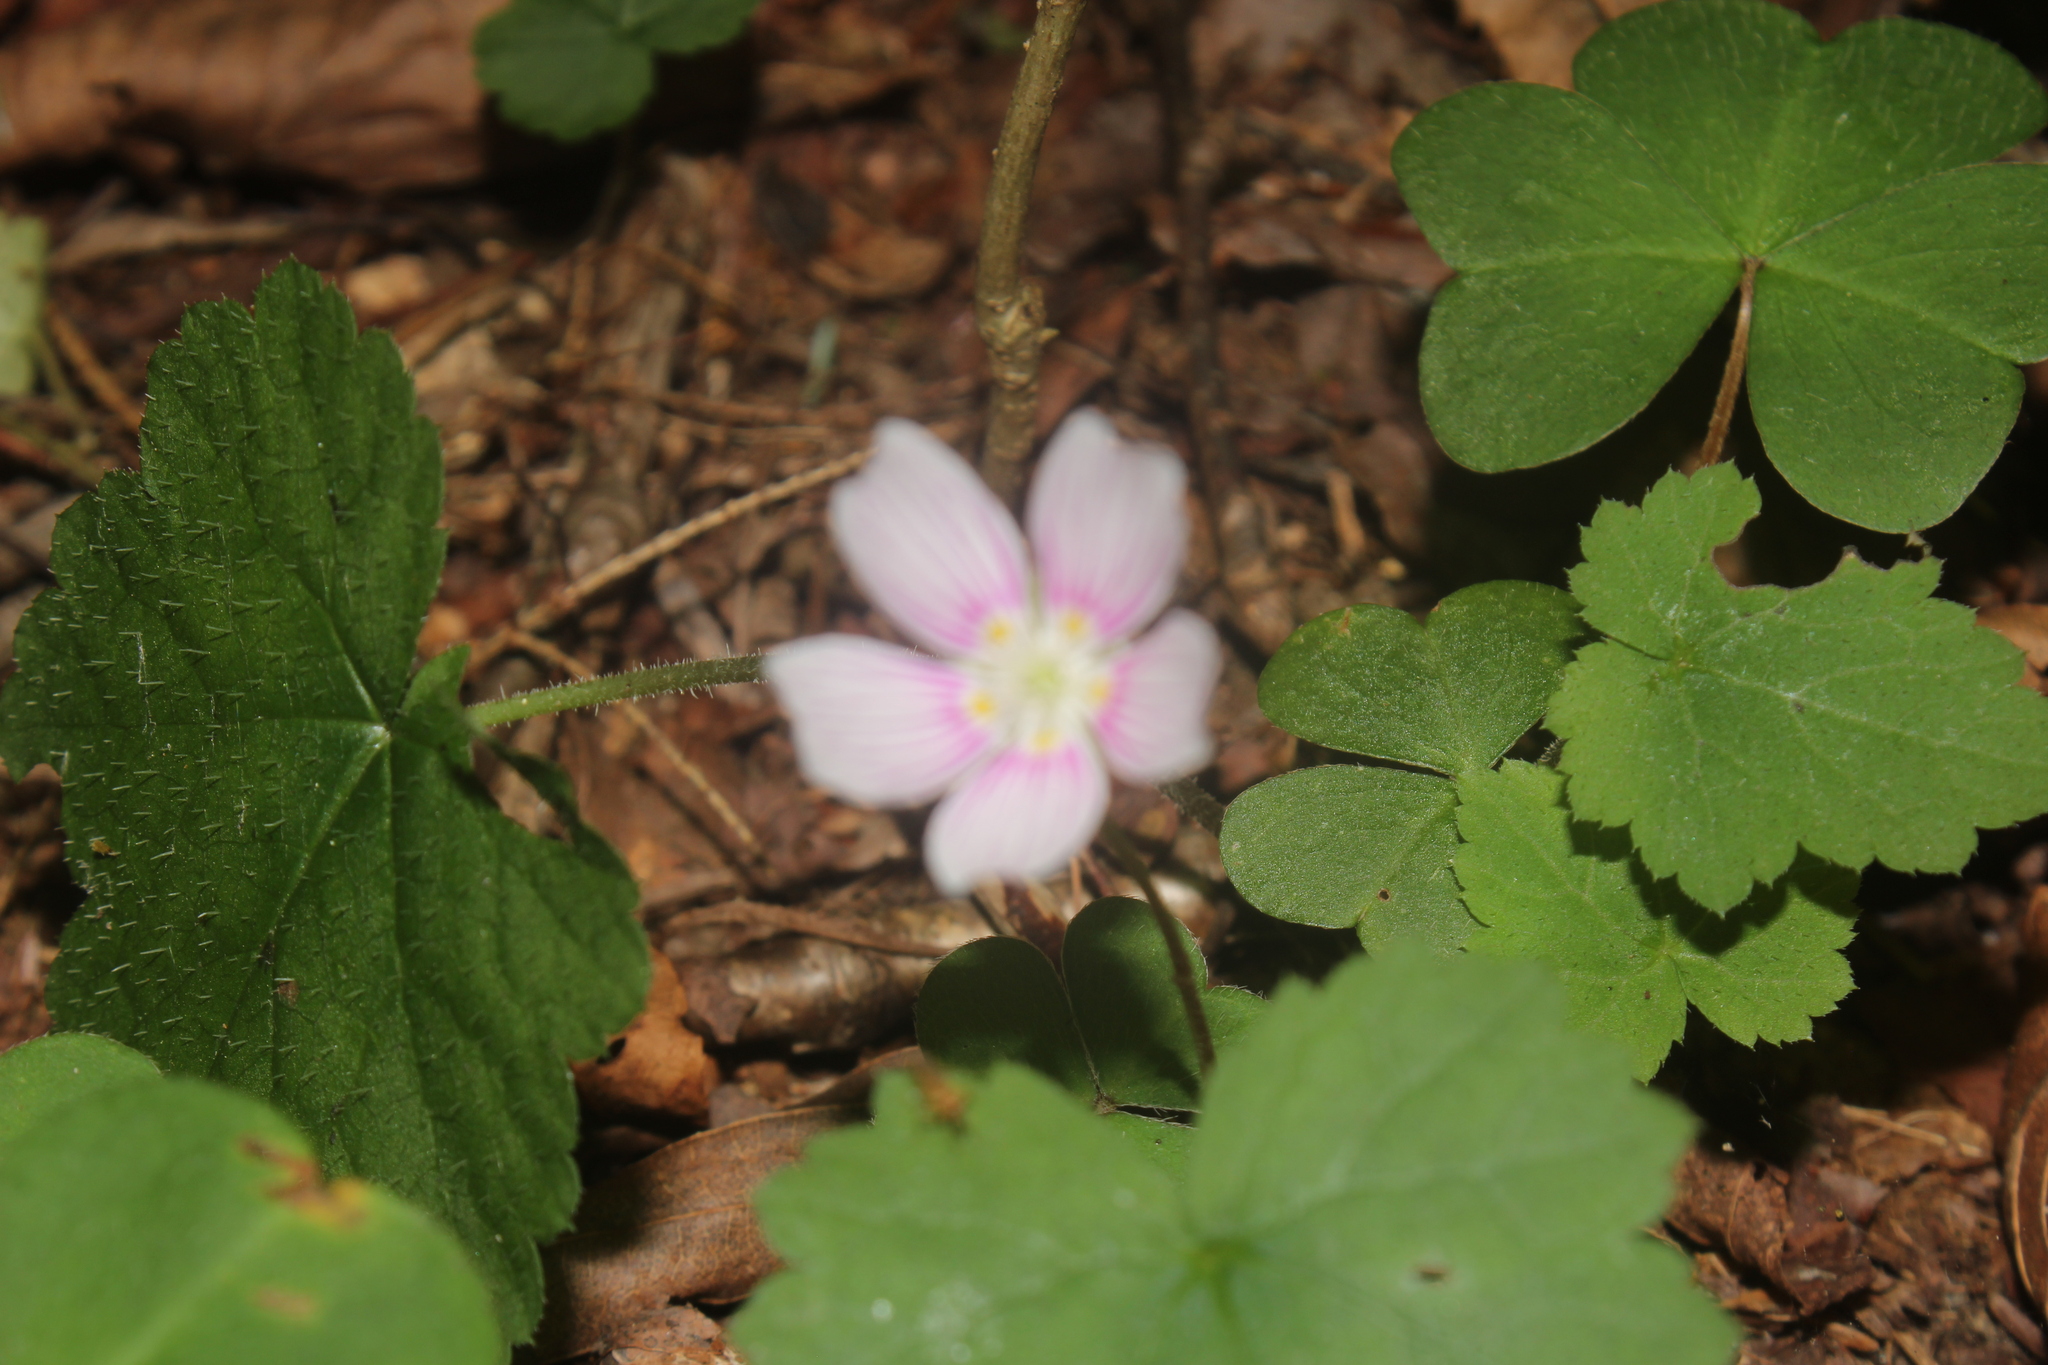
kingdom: Animalia
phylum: Arthropoda
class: Insecta
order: Diptera
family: Hybotidae
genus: Platypalpus
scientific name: Platypalpus
